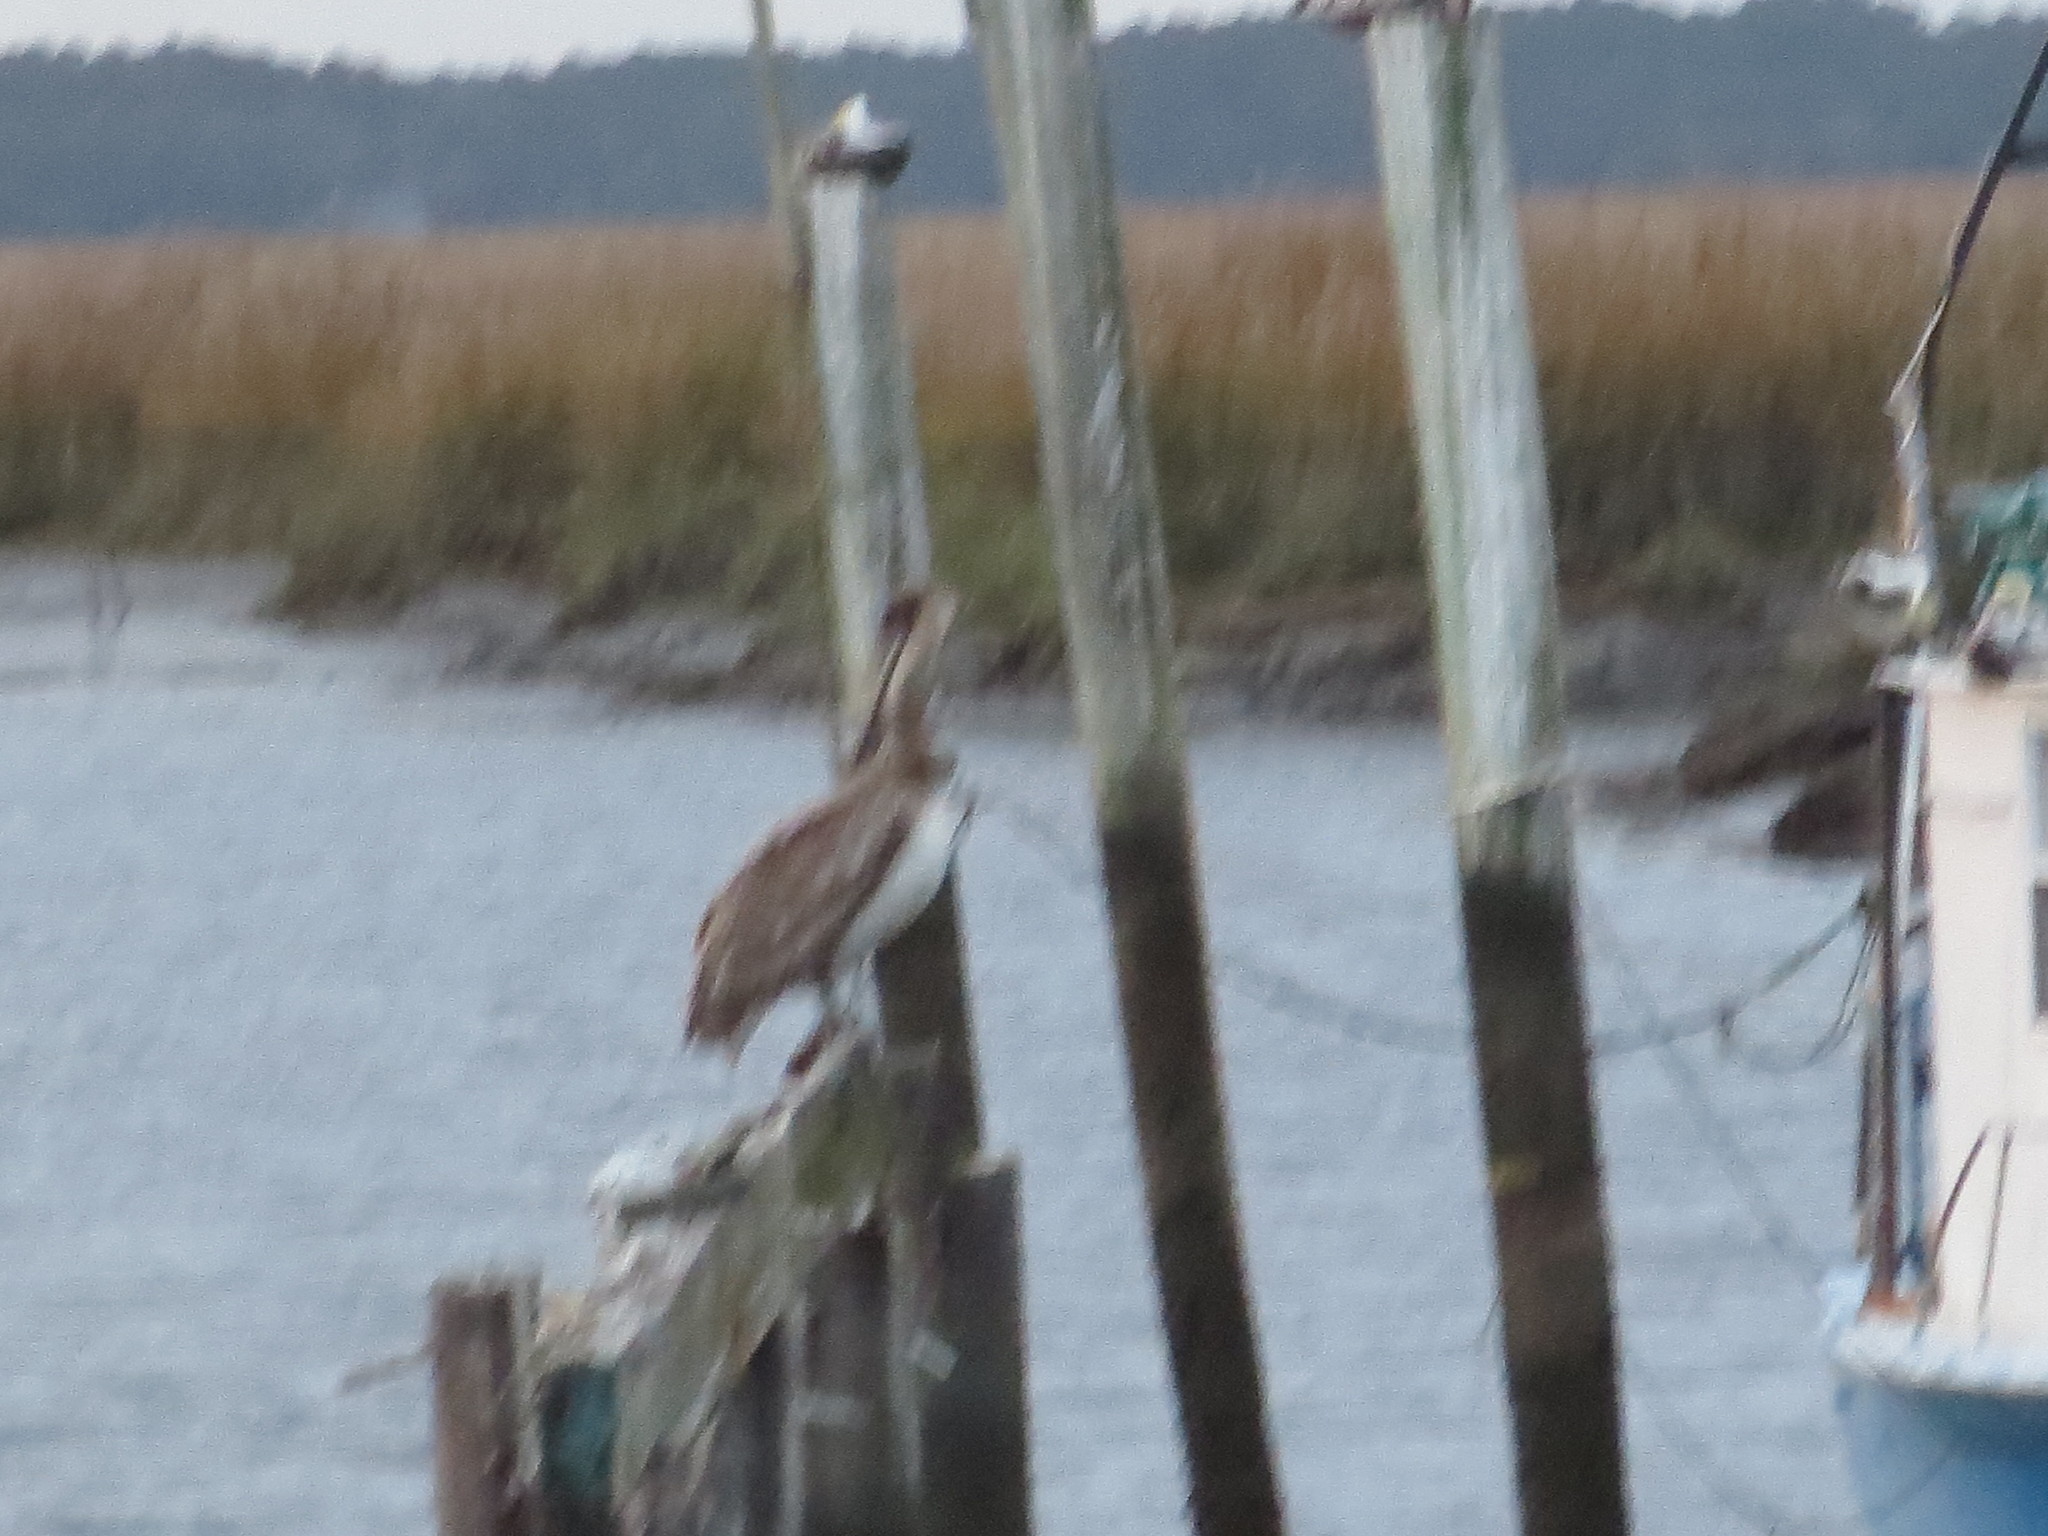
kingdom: Animalia
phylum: Chordata
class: Aves
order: Pelecaniformes
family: Pelecanidae
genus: Pelecanus
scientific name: Pelecanus occidentalis
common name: Brown pelican
